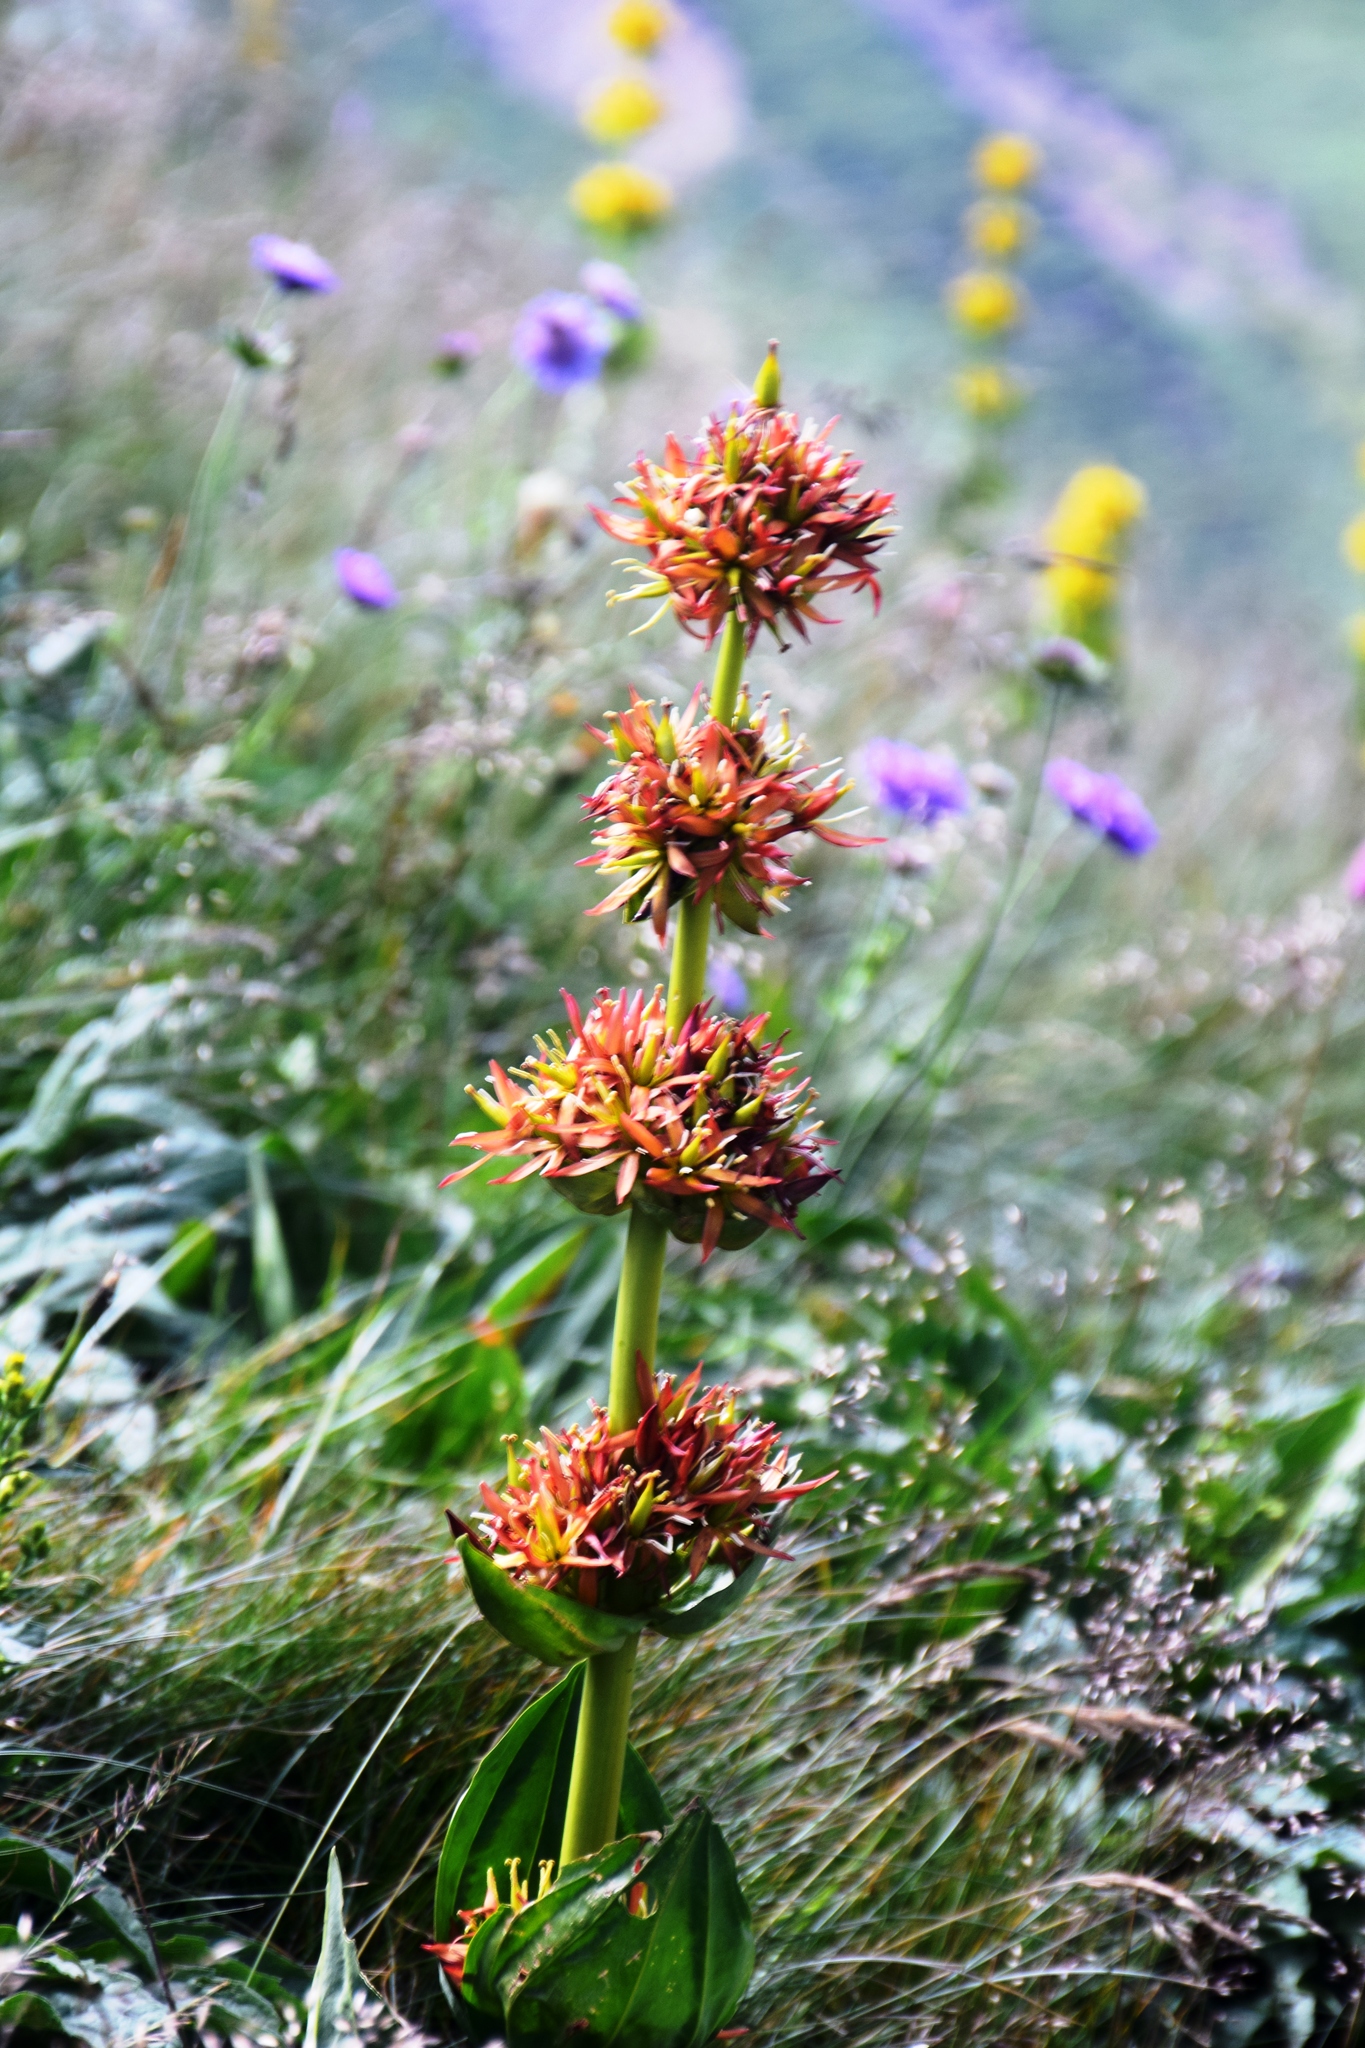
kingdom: Plantae
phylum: Tracheophyta
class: Magnoliopsida
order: Gentianales
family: Gentianaceae
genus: Gentiana
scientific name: Gentiana lutea
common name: Great yellow gentian
